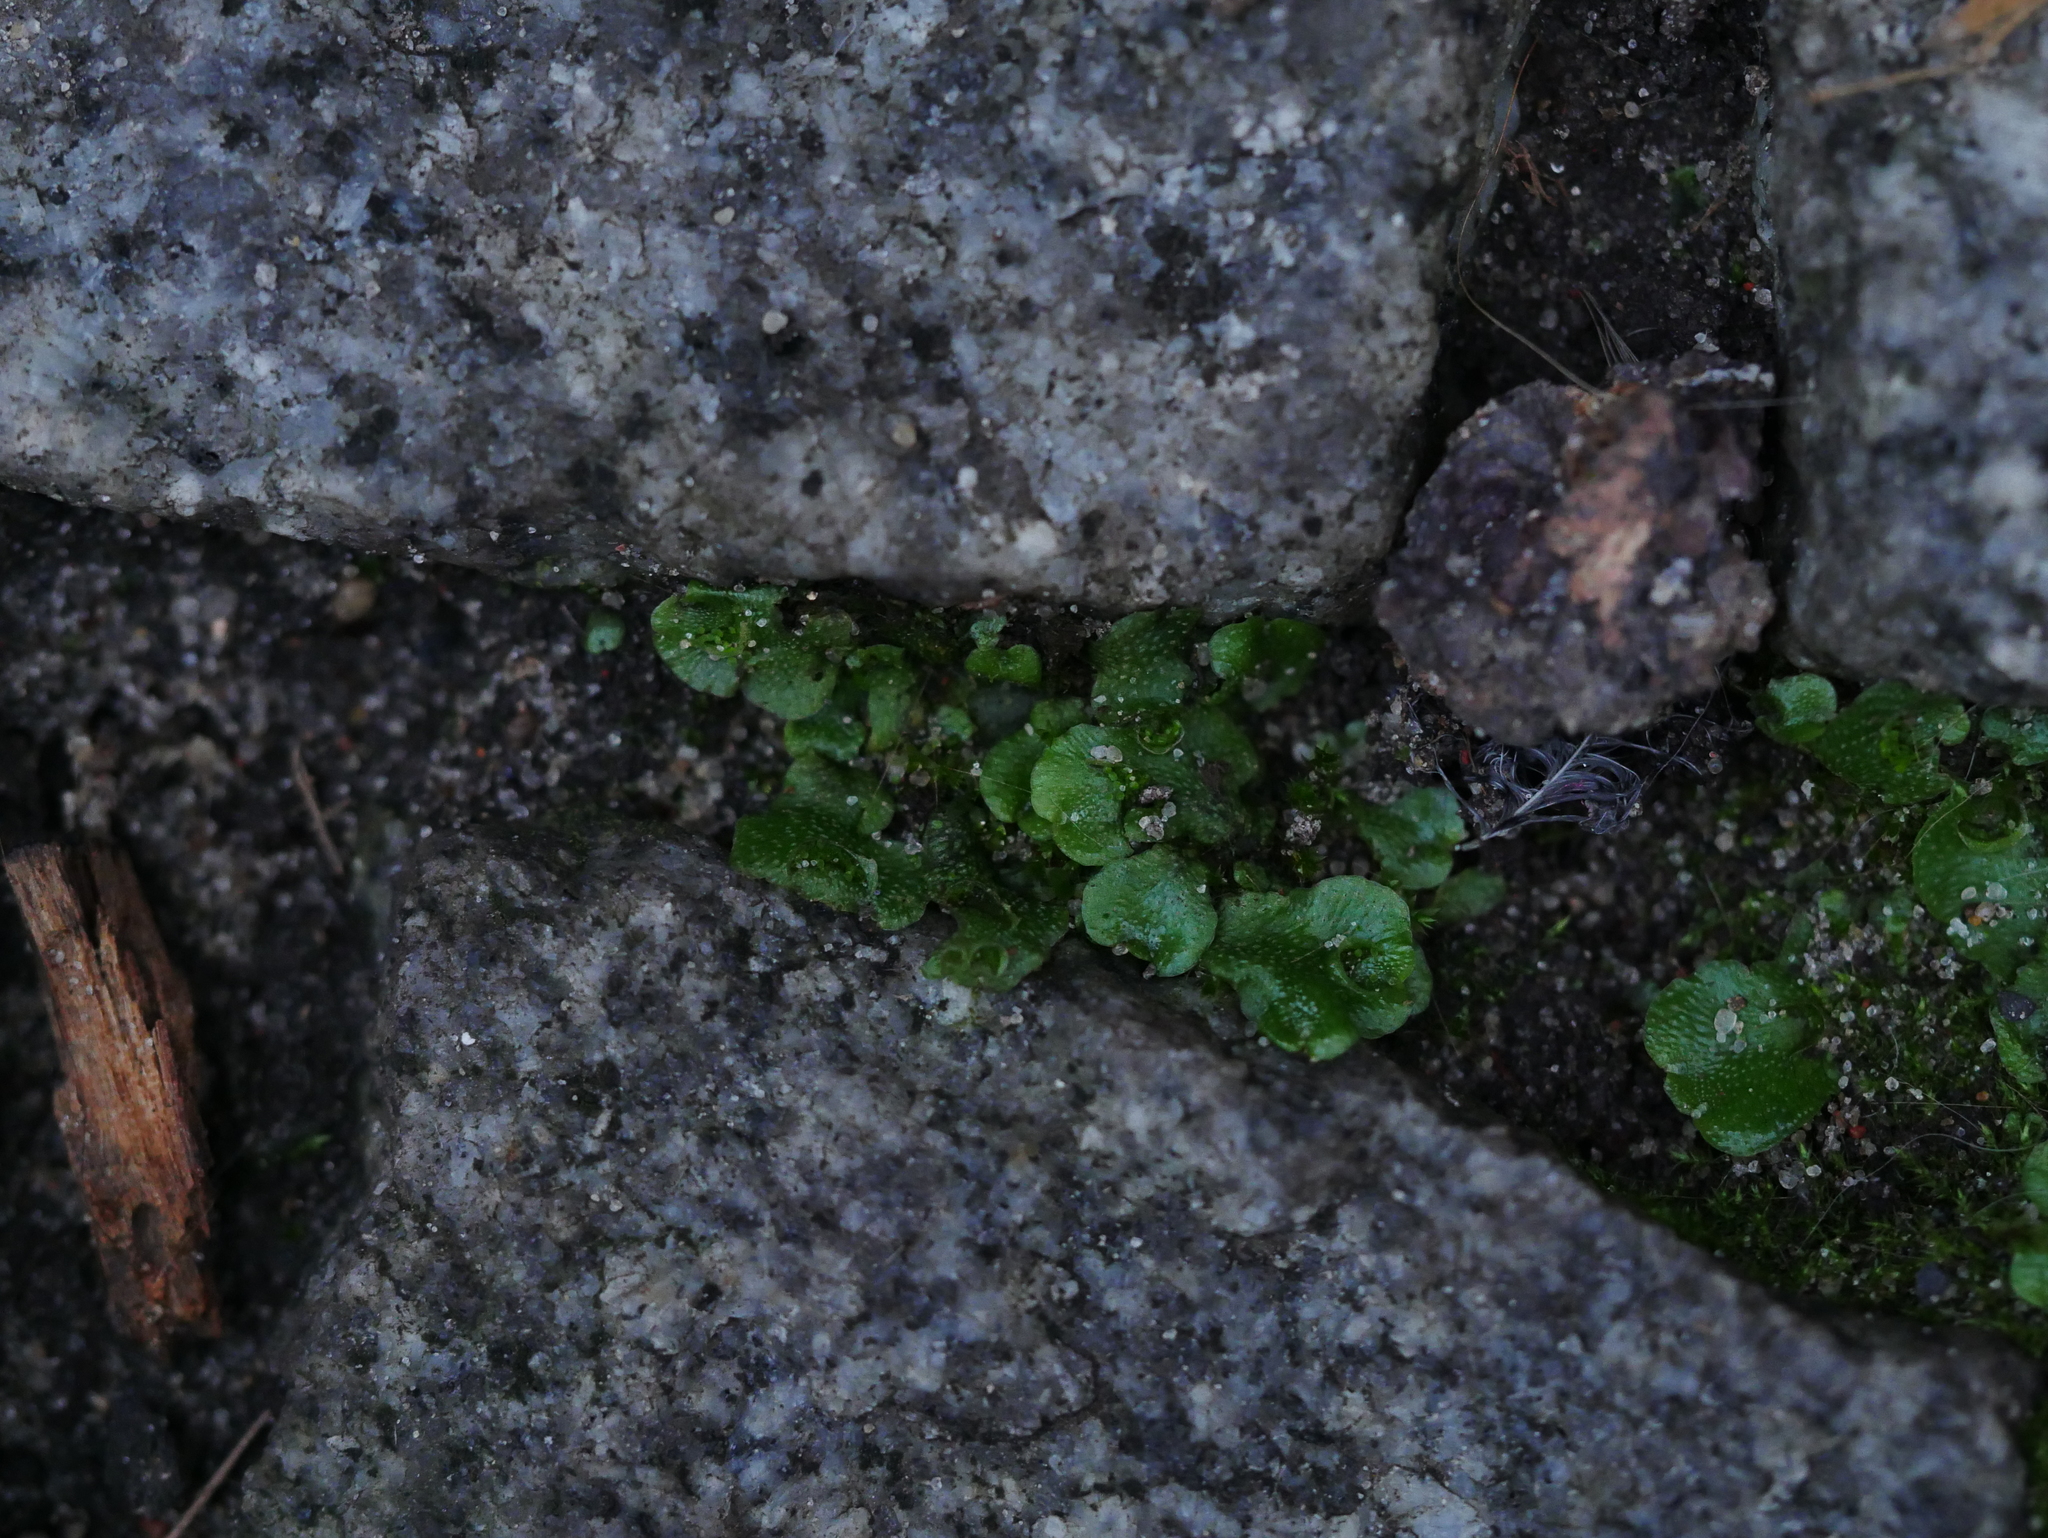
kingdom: Plantae
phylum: Marchantiophyta
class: Marchantiopsida
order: Lunulariales
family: Lunulariaceae
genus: Lunularia
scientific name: Lunularia cruciata
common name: Crescent-cup liverwort
